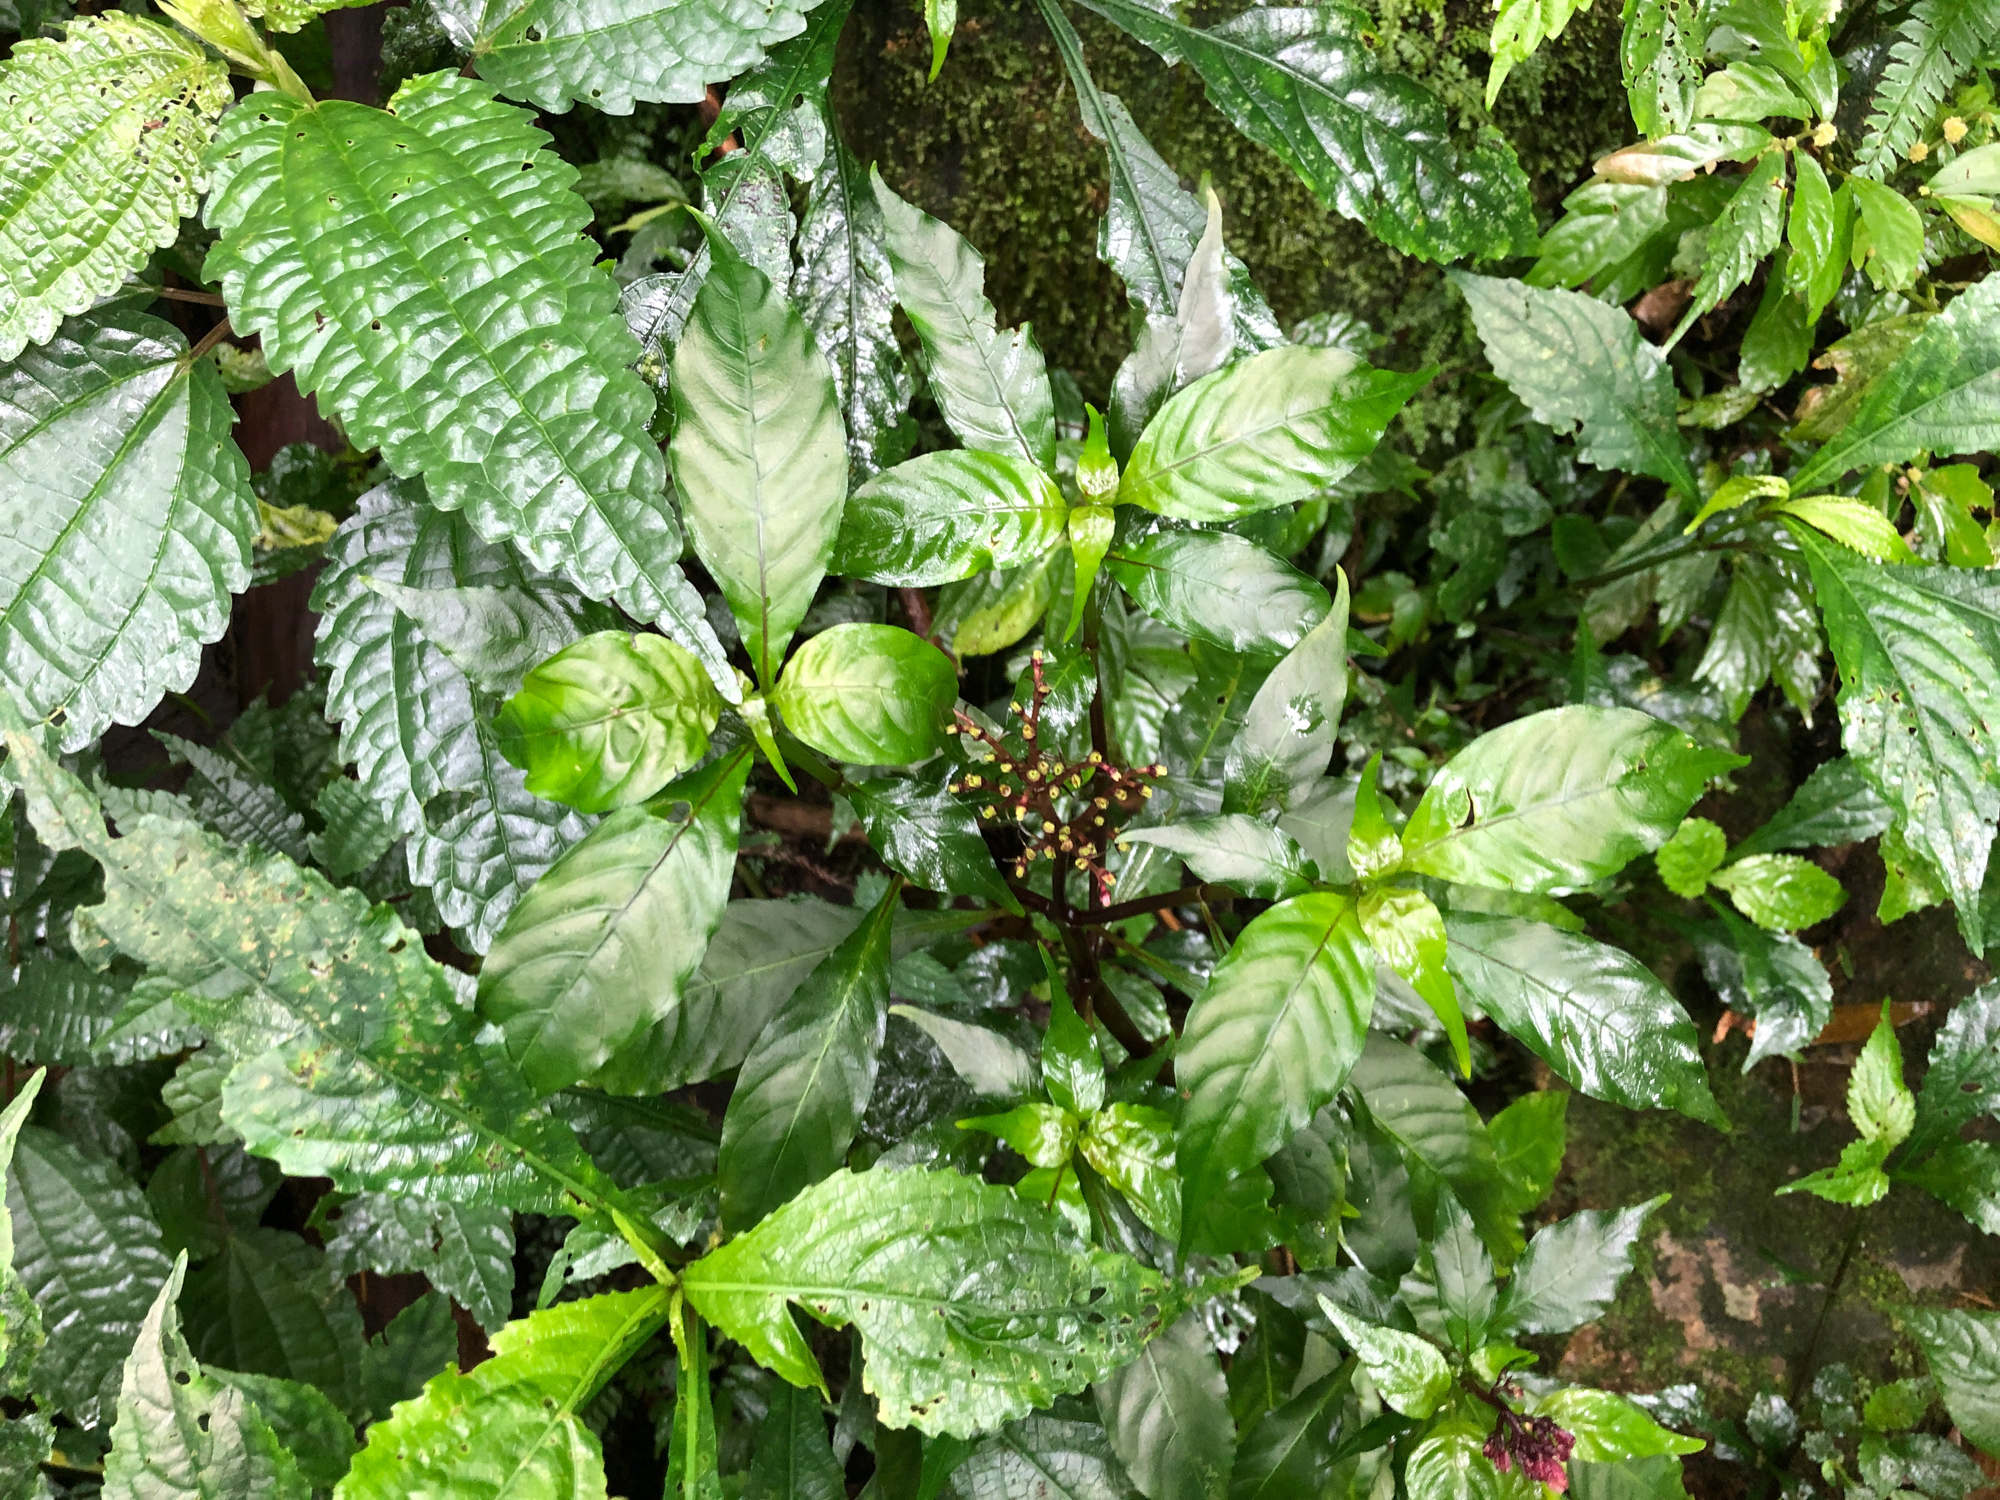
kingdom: Plantae
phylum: Tracheophyta
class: Magnoliopsida
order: Gentianales
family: Rubiaceae
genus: Ophiorrhiza
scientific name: Ophiorrhiza japonica
